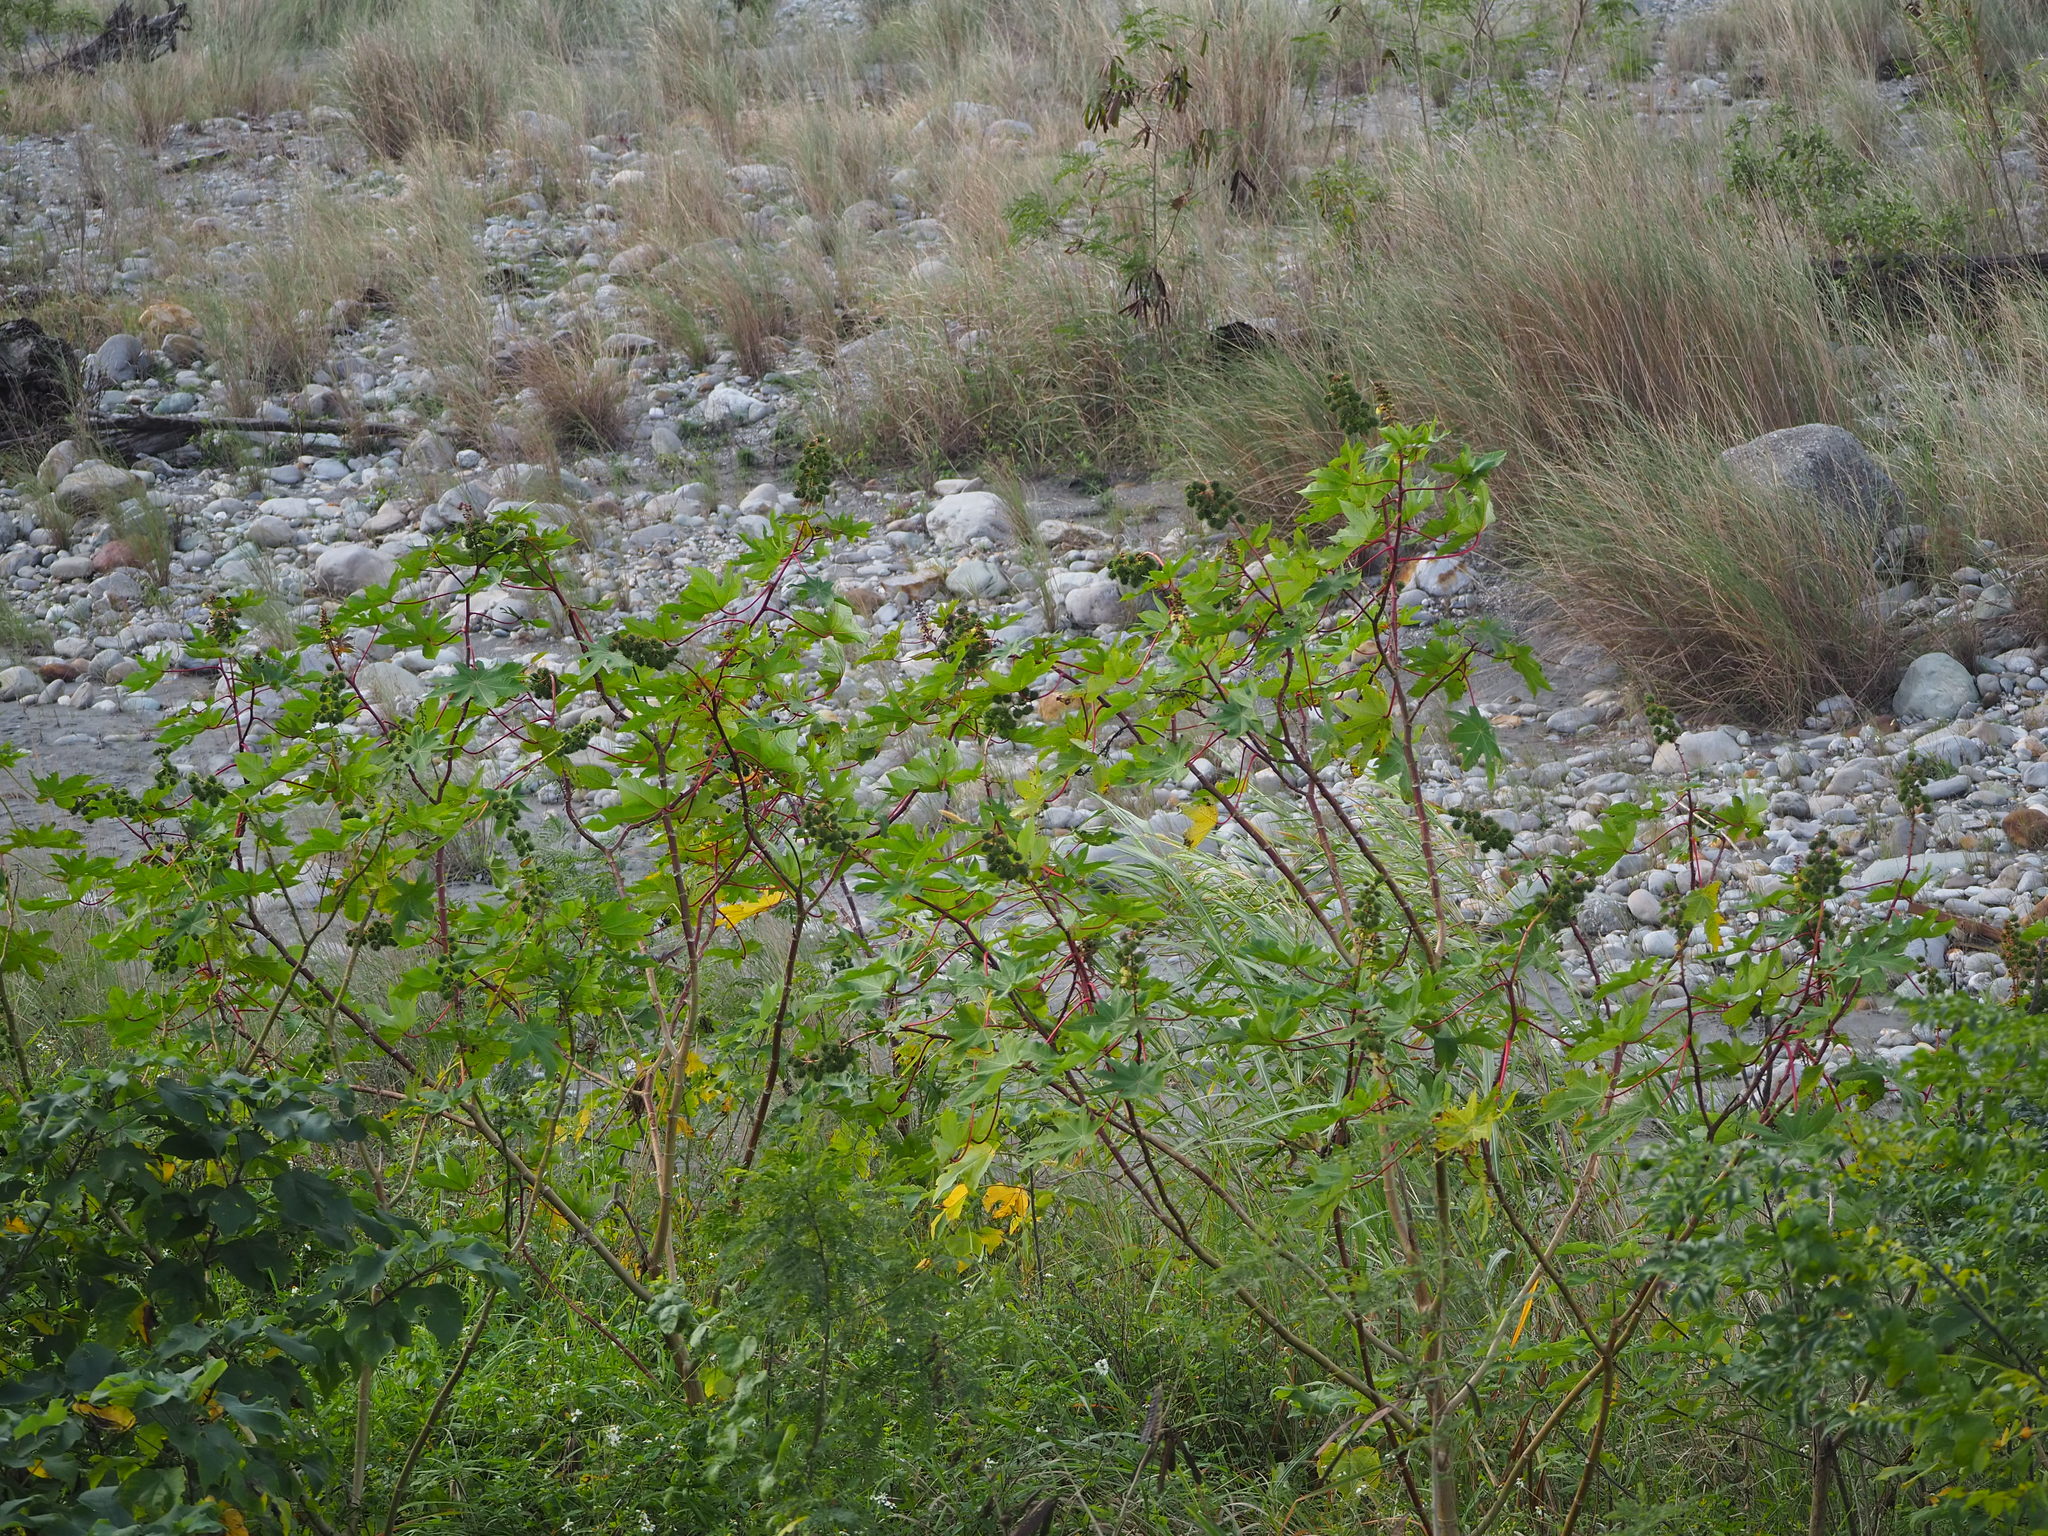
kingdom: Plantae
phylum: Tracheophyta
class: Magnoliopsida
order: Malpighiales
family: Euphorbiaceae
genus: Ricinus
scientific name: Ricinus communis
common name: Castor-oil-plant
